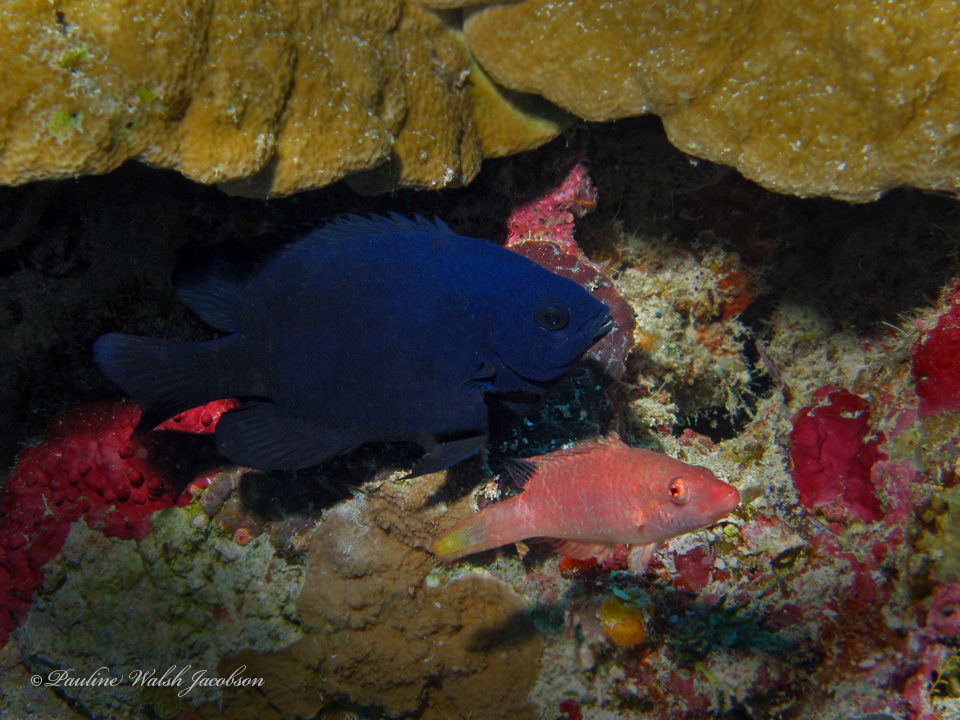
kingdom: Animalia
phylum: Chordata
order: Perciformes
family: Pomacentridae
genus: Neoglyphidodon
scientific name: Neoglyphidodon melas
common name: Black damsel
